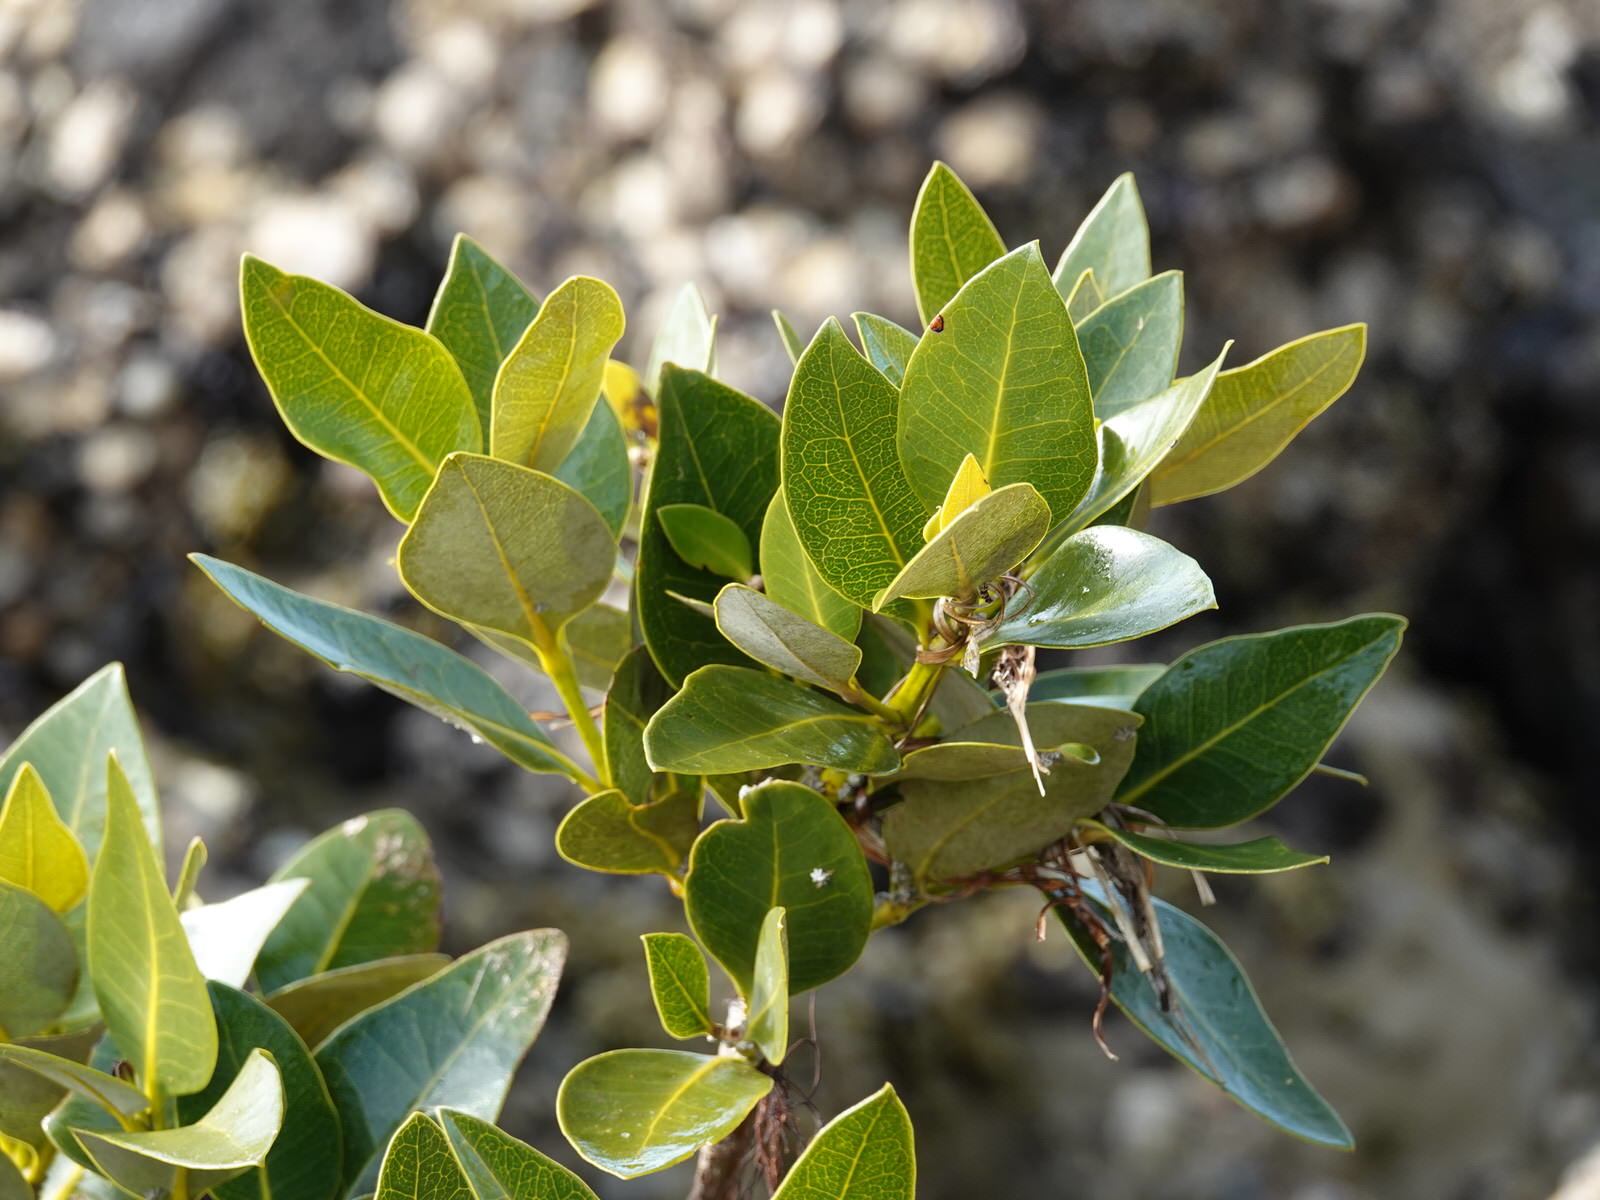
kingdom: Plantae
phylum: Tracheophyta
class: Magnoliopsida
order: Lamiales
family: Acanthaceae
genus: Avicennia
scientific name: Avicennia marina
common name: Gray mangrove
